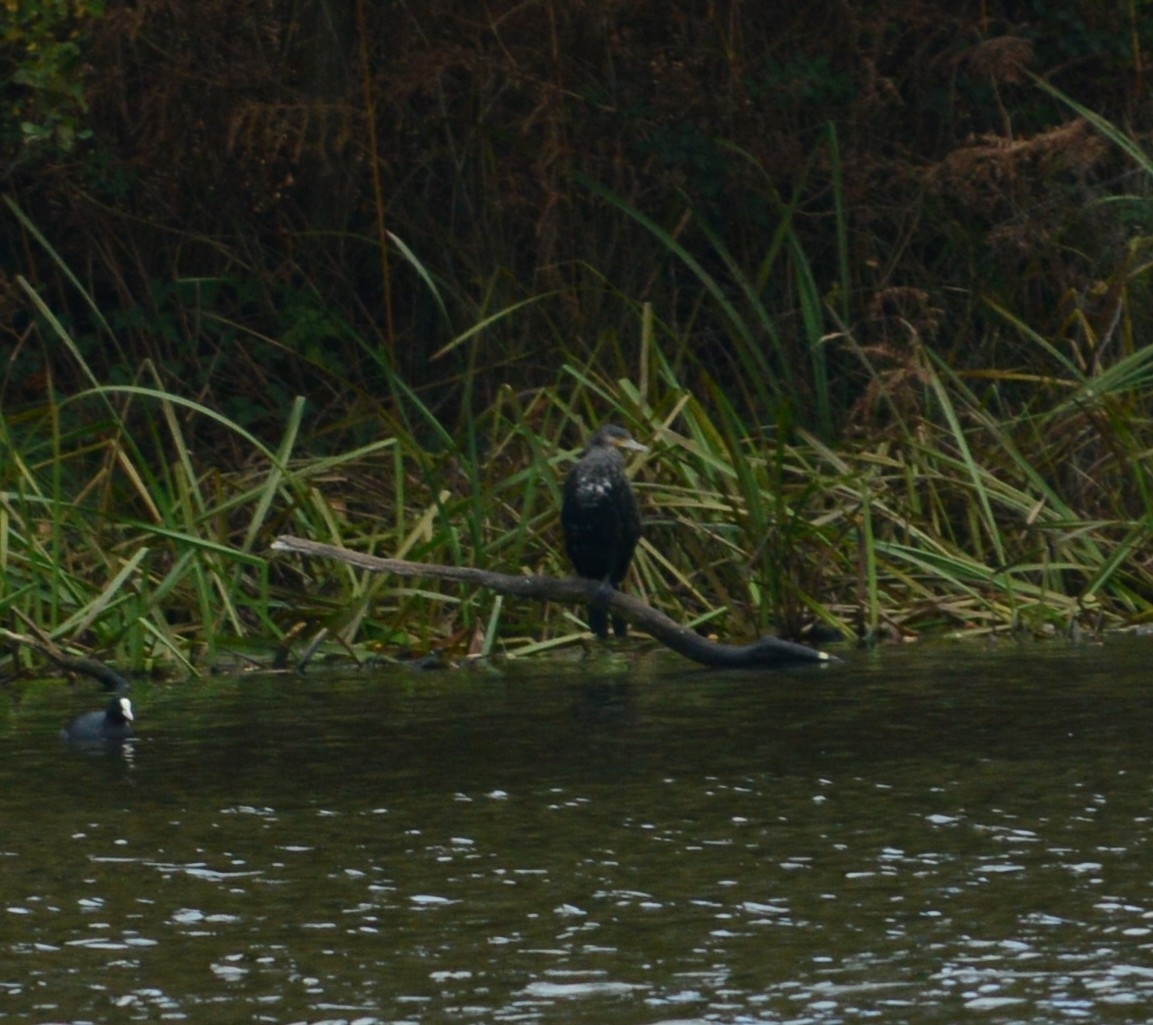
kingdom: Animalia
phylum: Chordata
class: Aves
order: Suliformes
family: Phalacrocoracidae
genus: Phalacrocorax
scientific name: Phalacrocorax carbo
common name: Great cormorant
